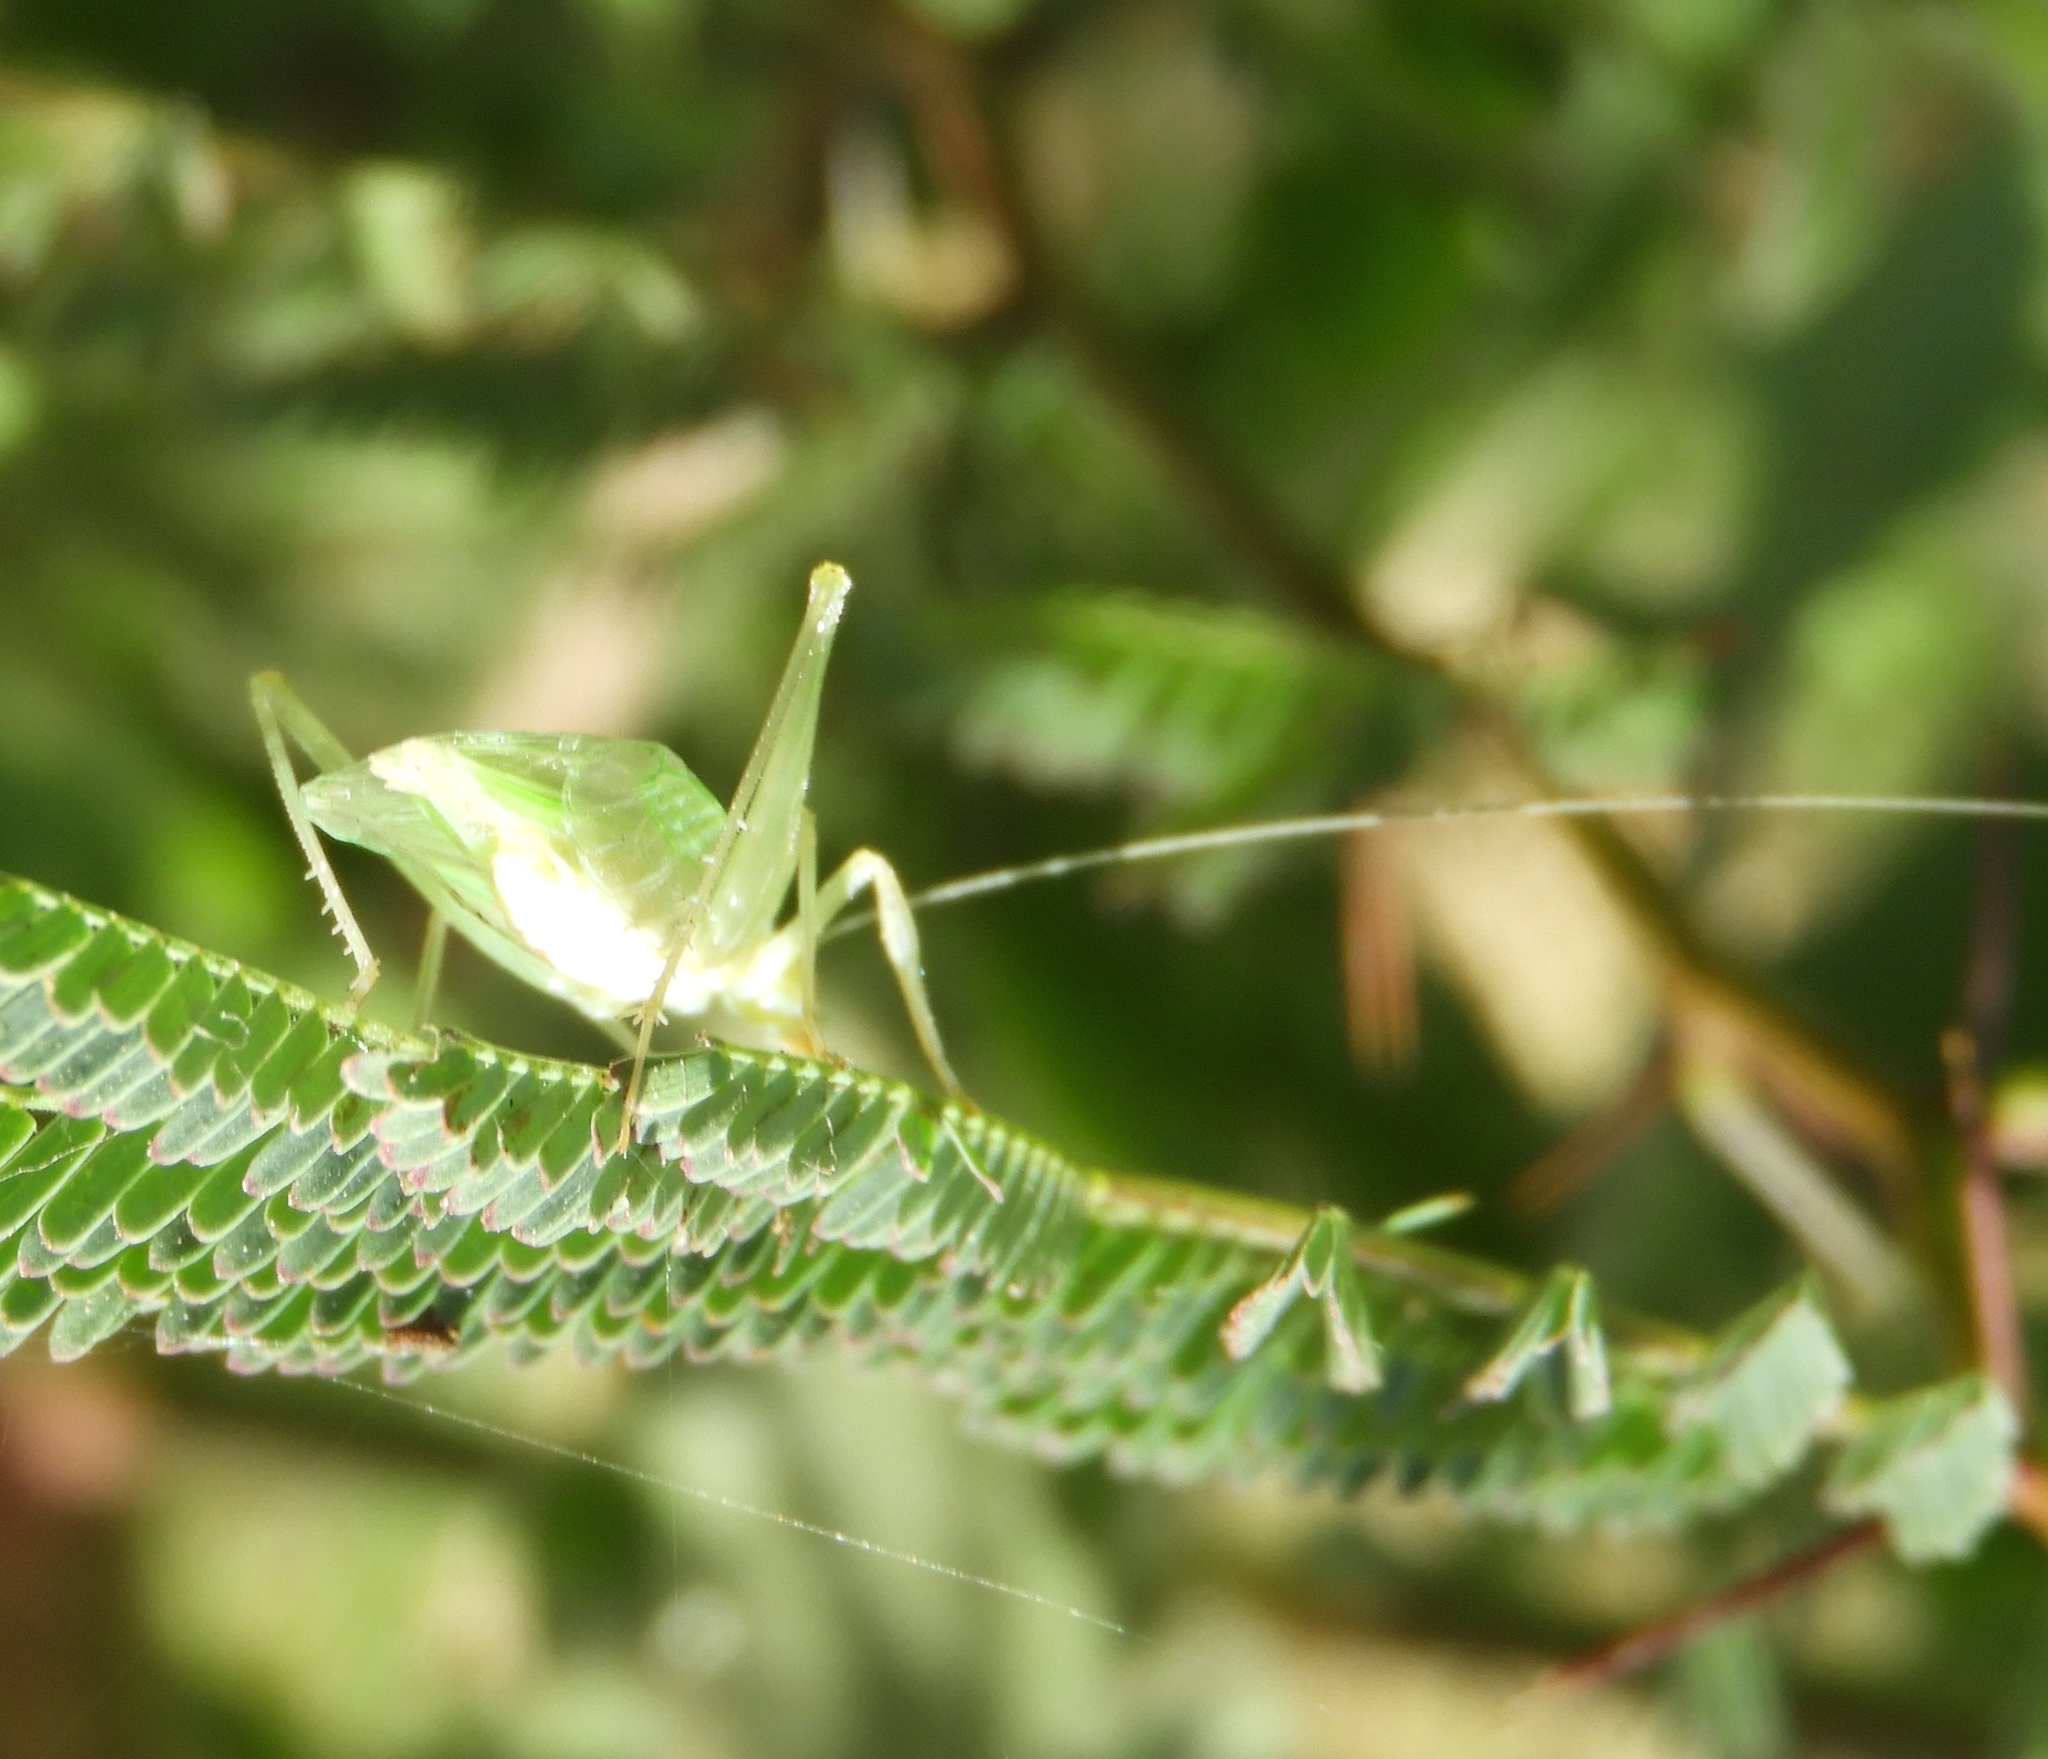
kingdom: Animalia
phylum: Arthropoda
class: Insecta
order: Orthoptera
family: Gryllidae
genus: Oecanthus
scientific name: Oecanthus
